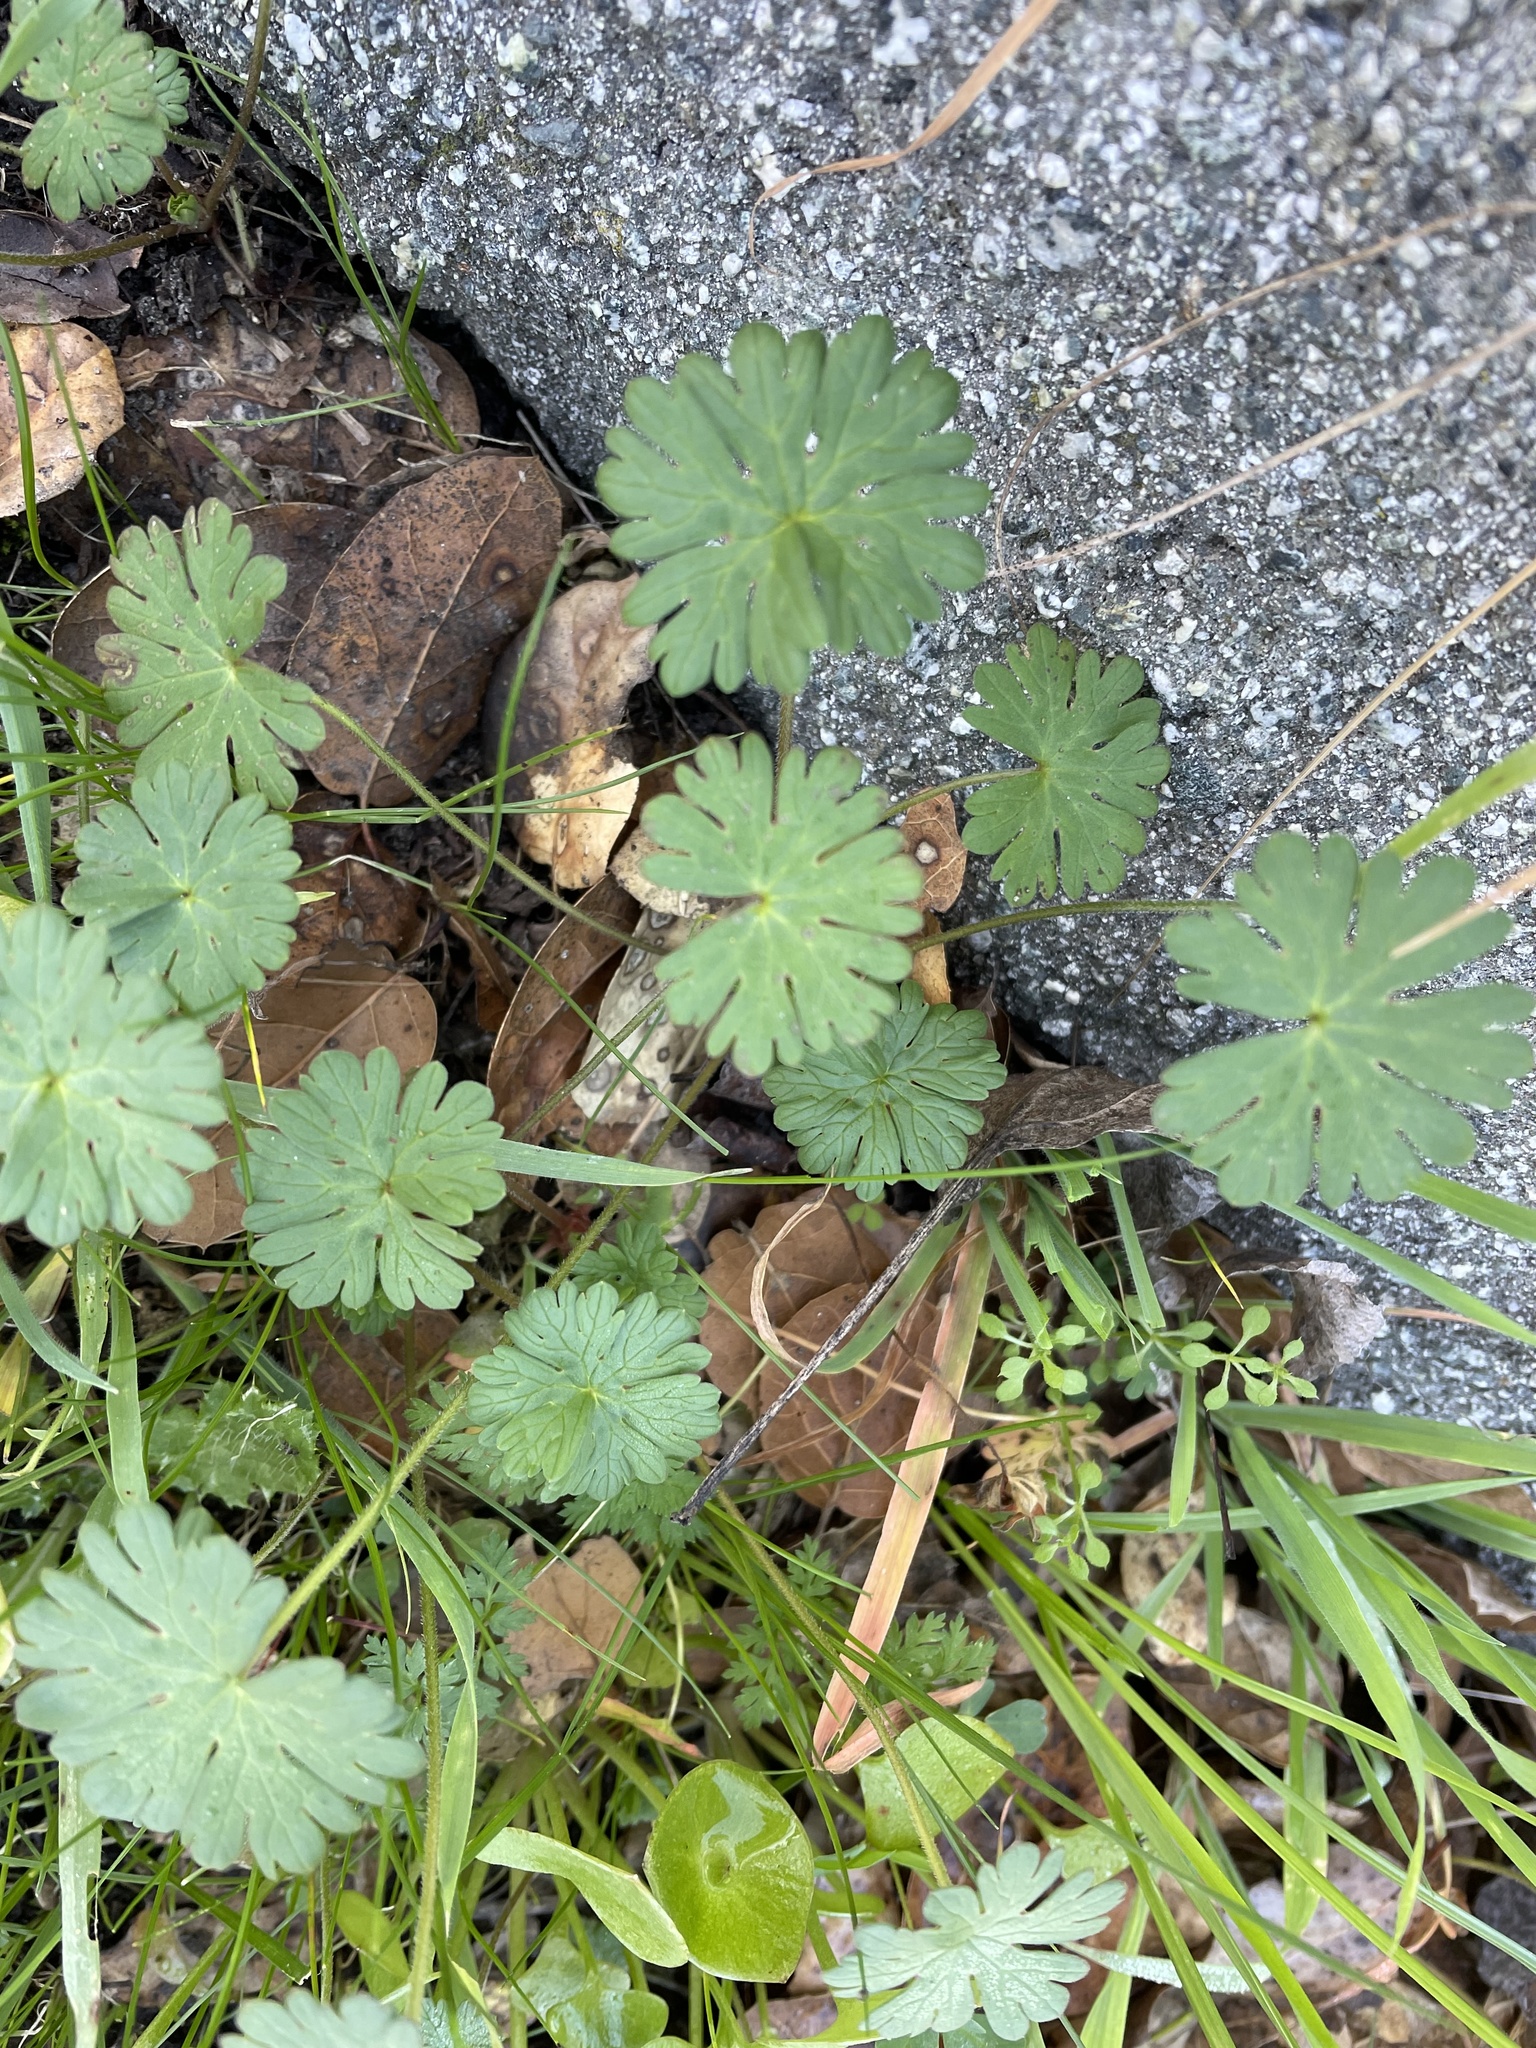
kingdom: Plantae
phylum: Tracheophyta
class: Magnoliopsida
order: Geraniales
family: Geraniaceae
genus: Geranium
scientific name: Geranium
